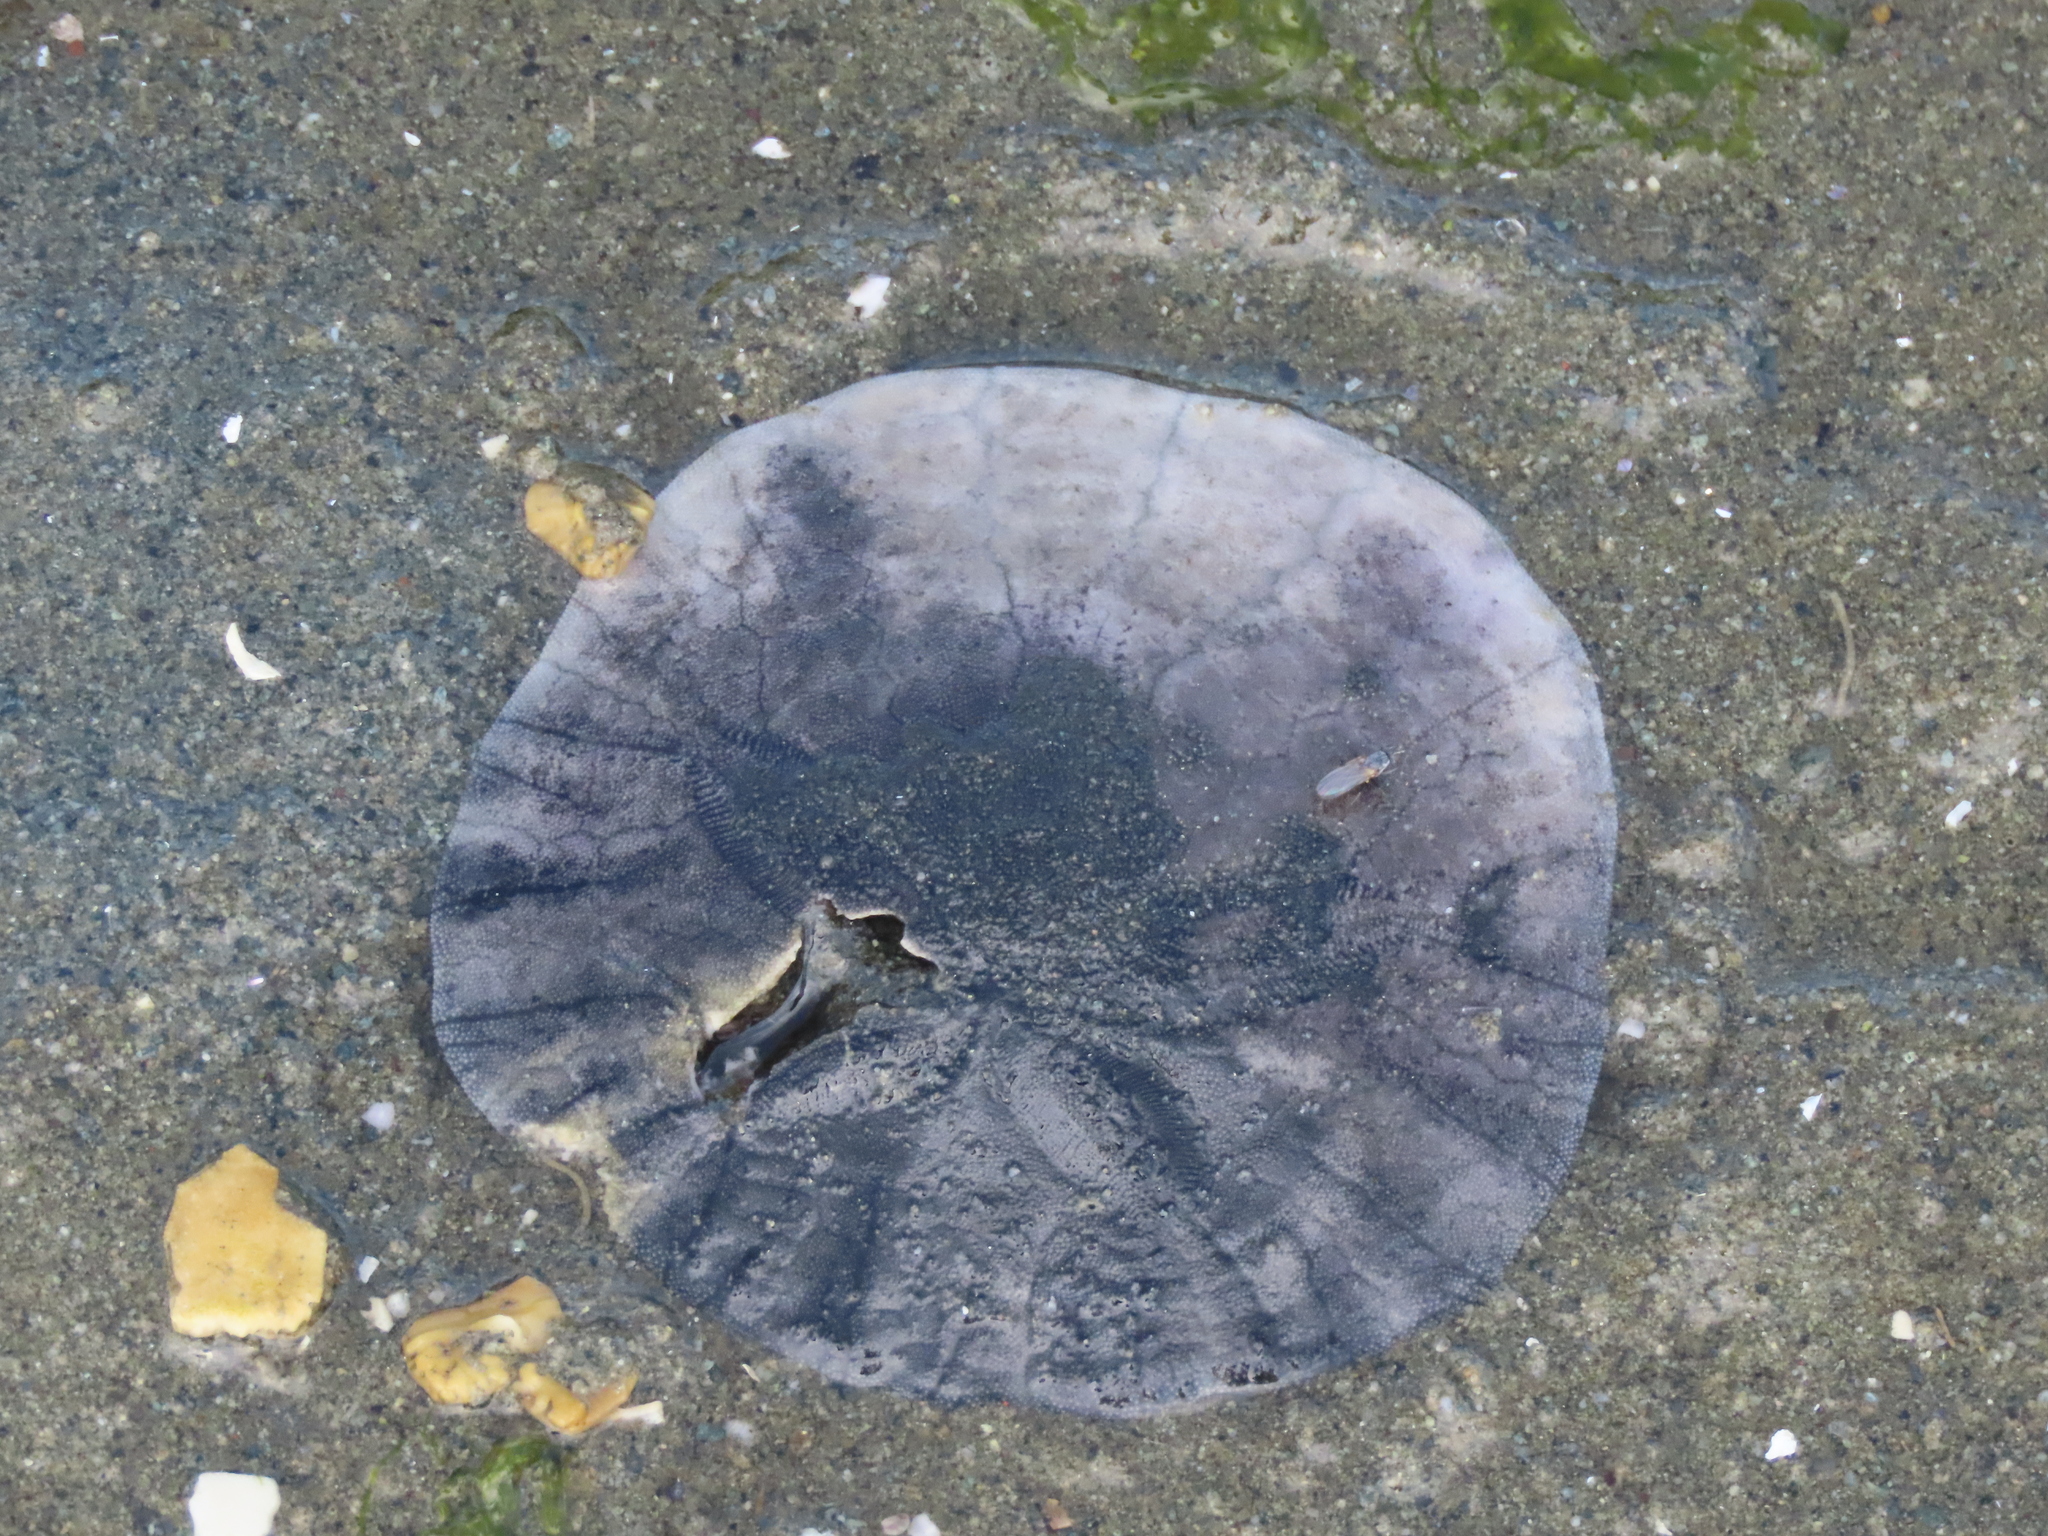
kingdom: Animalia
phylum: Echinodermata
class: Echinoidea
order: Echinolampadacea
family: Dendrasteridae
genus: Dendraster
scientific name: Dendraster excentricus
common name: Eccentric sand dollar sea urchin
